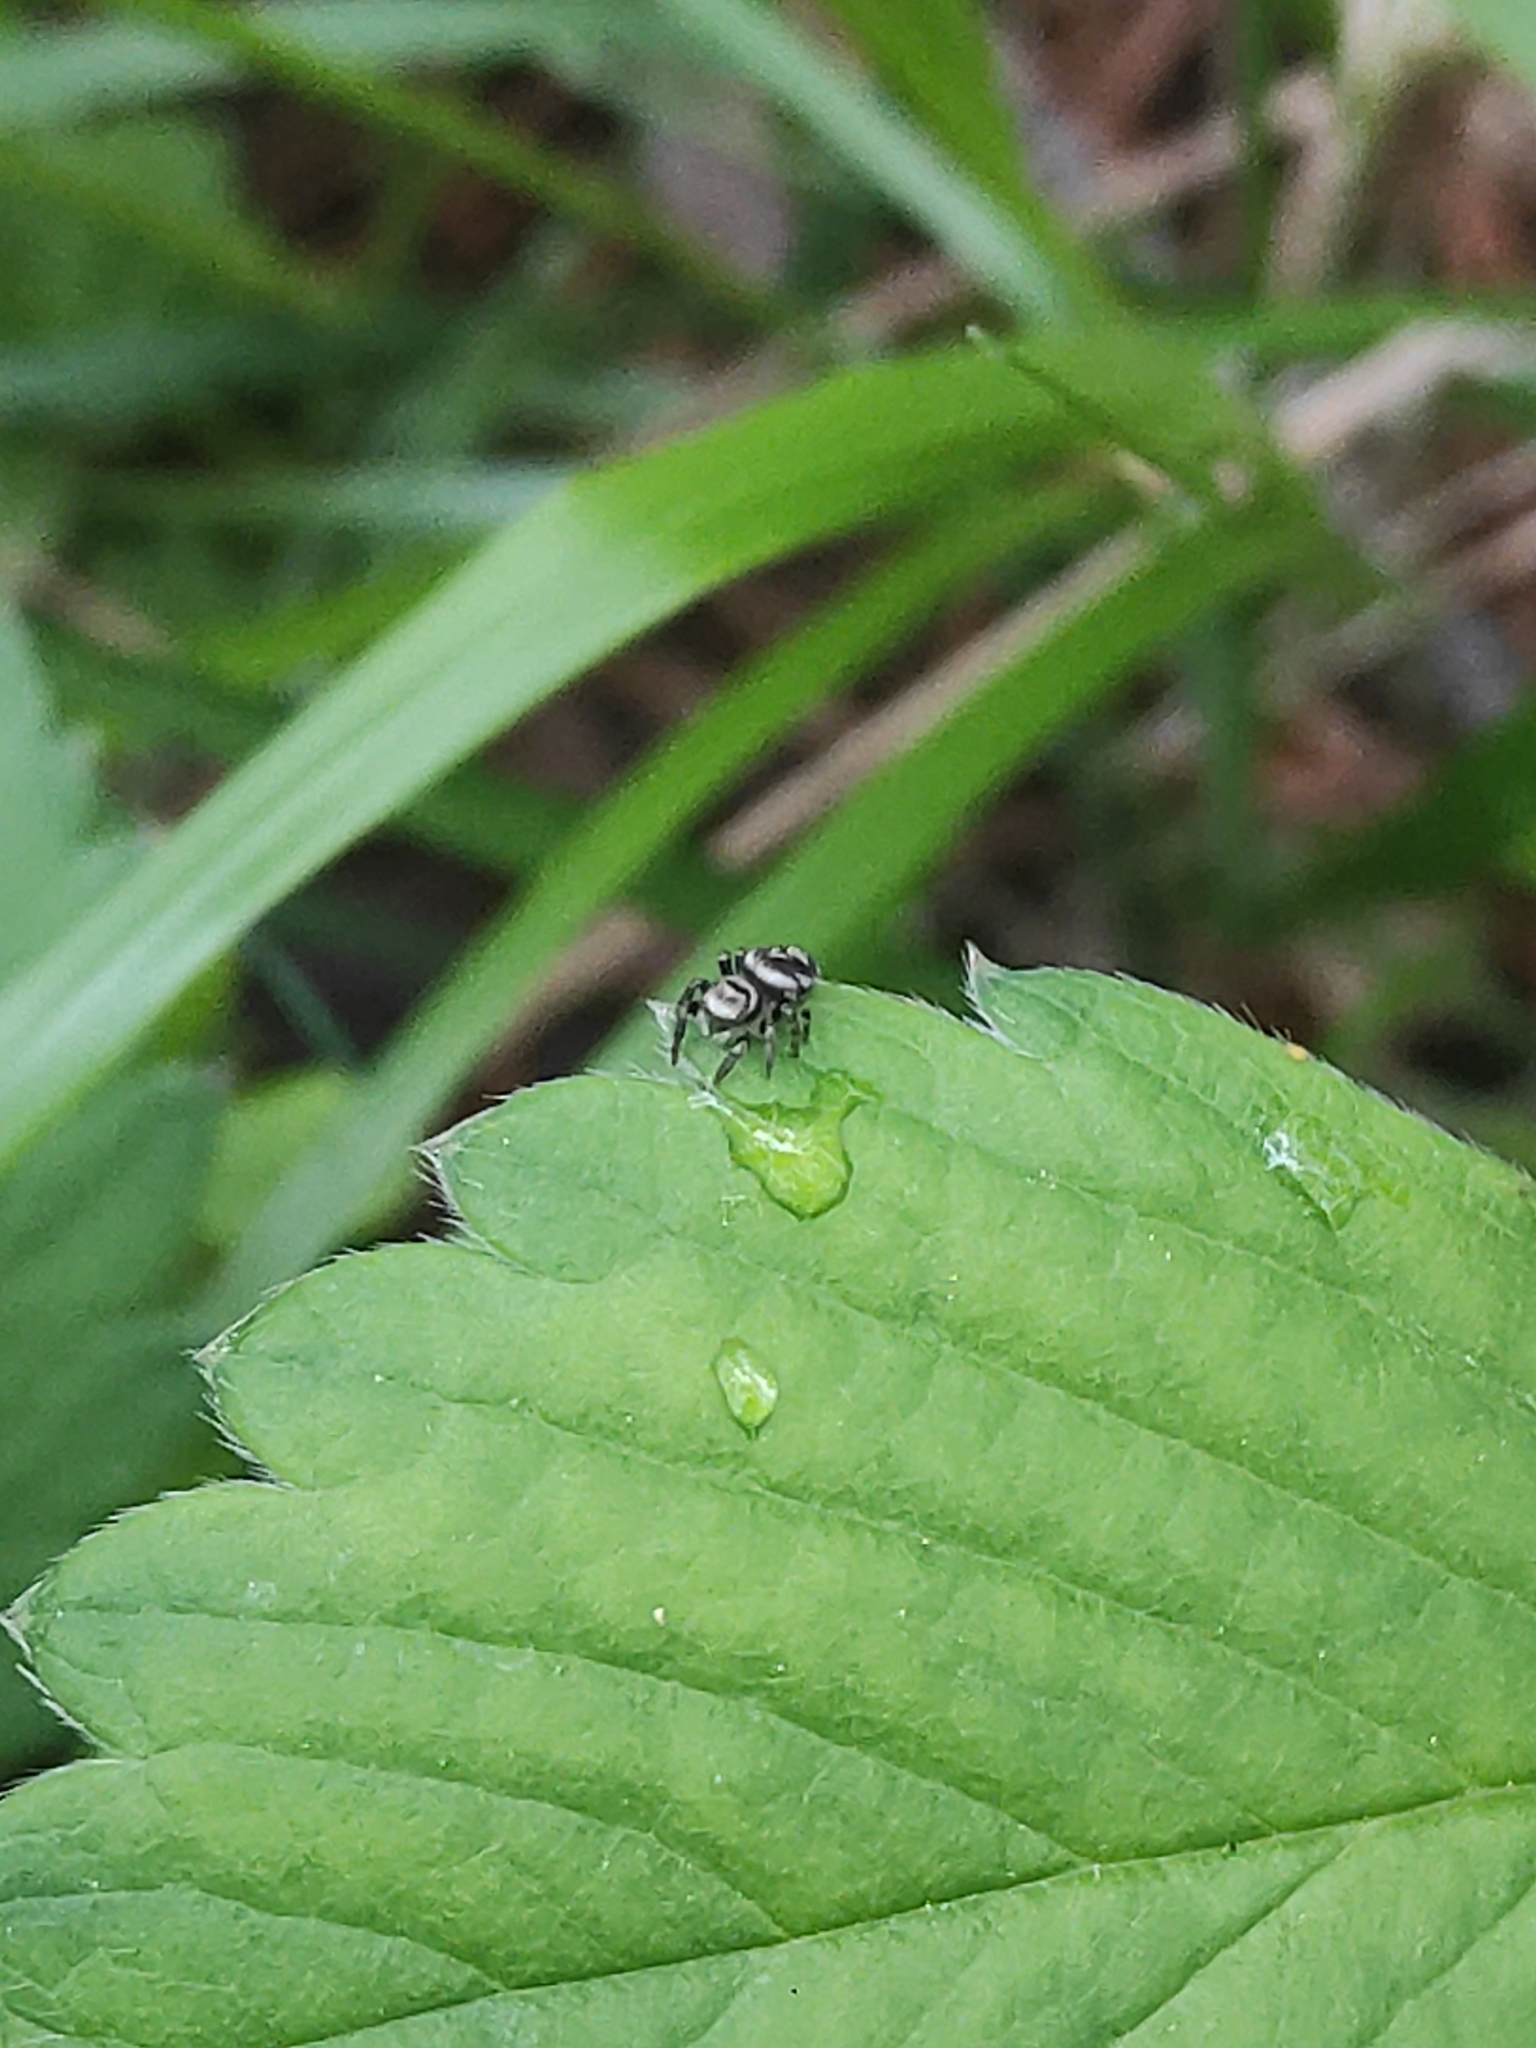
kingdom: Animalia
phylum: Arthropoda
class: Arachnida
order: Araneae
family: Salticidae
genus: Evarcha
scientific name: Evarcha
